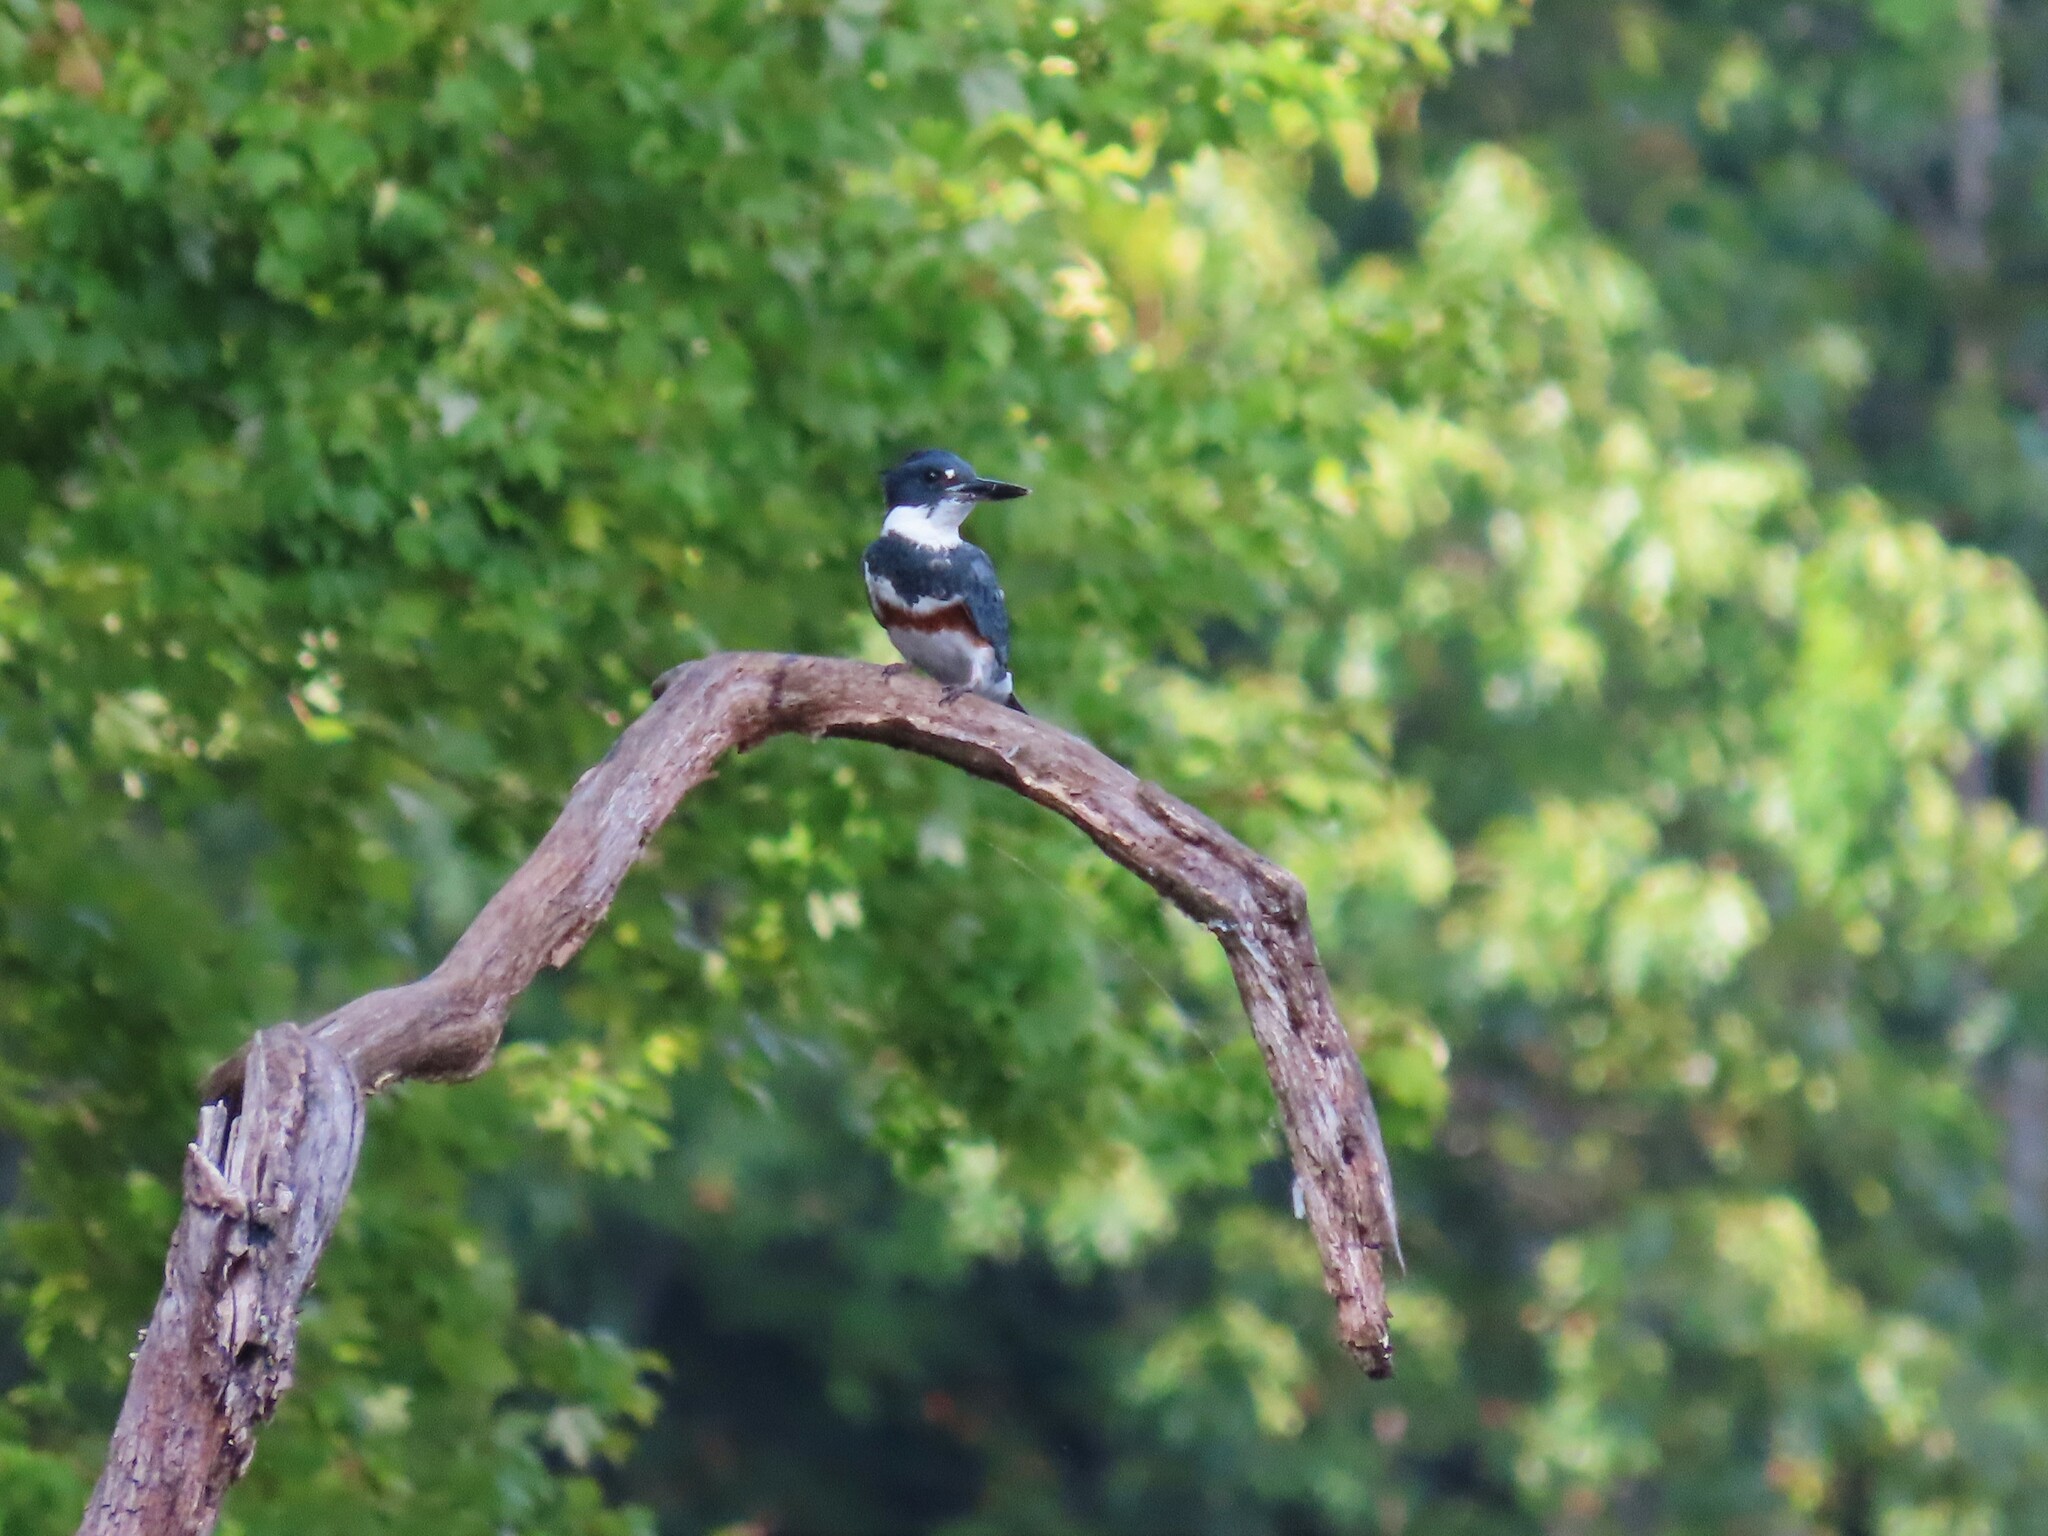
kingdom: Animalia
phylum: Chordata
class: Aves
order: Coraciiformes
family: Alcedinidae
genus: Megaceryle
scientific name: Megaceryle alcyon
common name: Belted kingfisher
